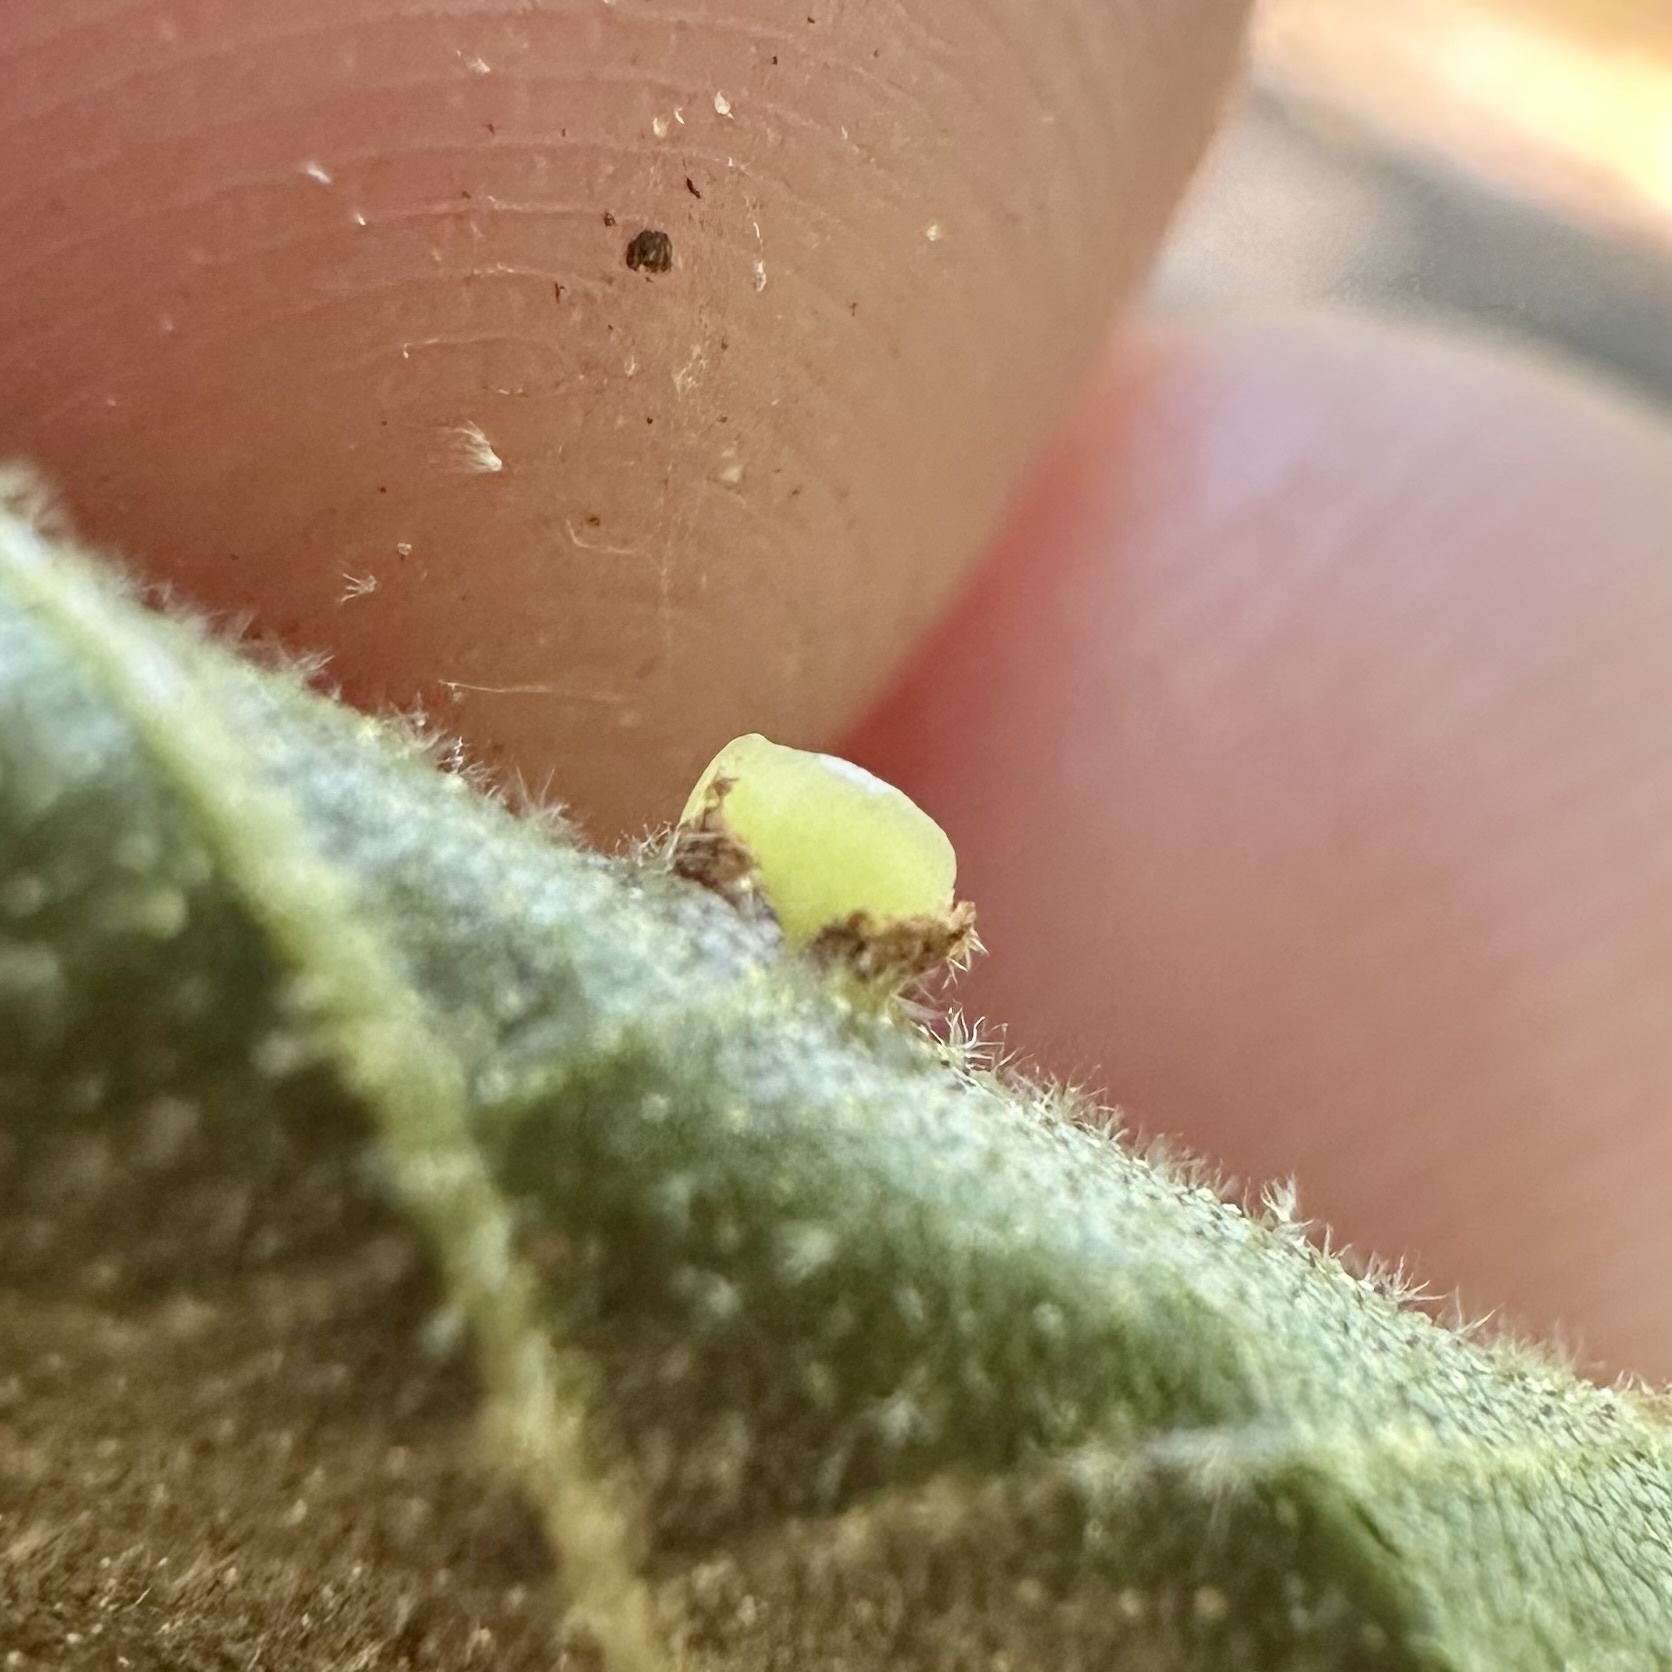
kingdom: Animalia
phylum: Arthropoda
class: Insecta
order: Diptera
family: Cecidomyiidae
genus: Caryomyia
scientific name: Caryomyia levicrustum
